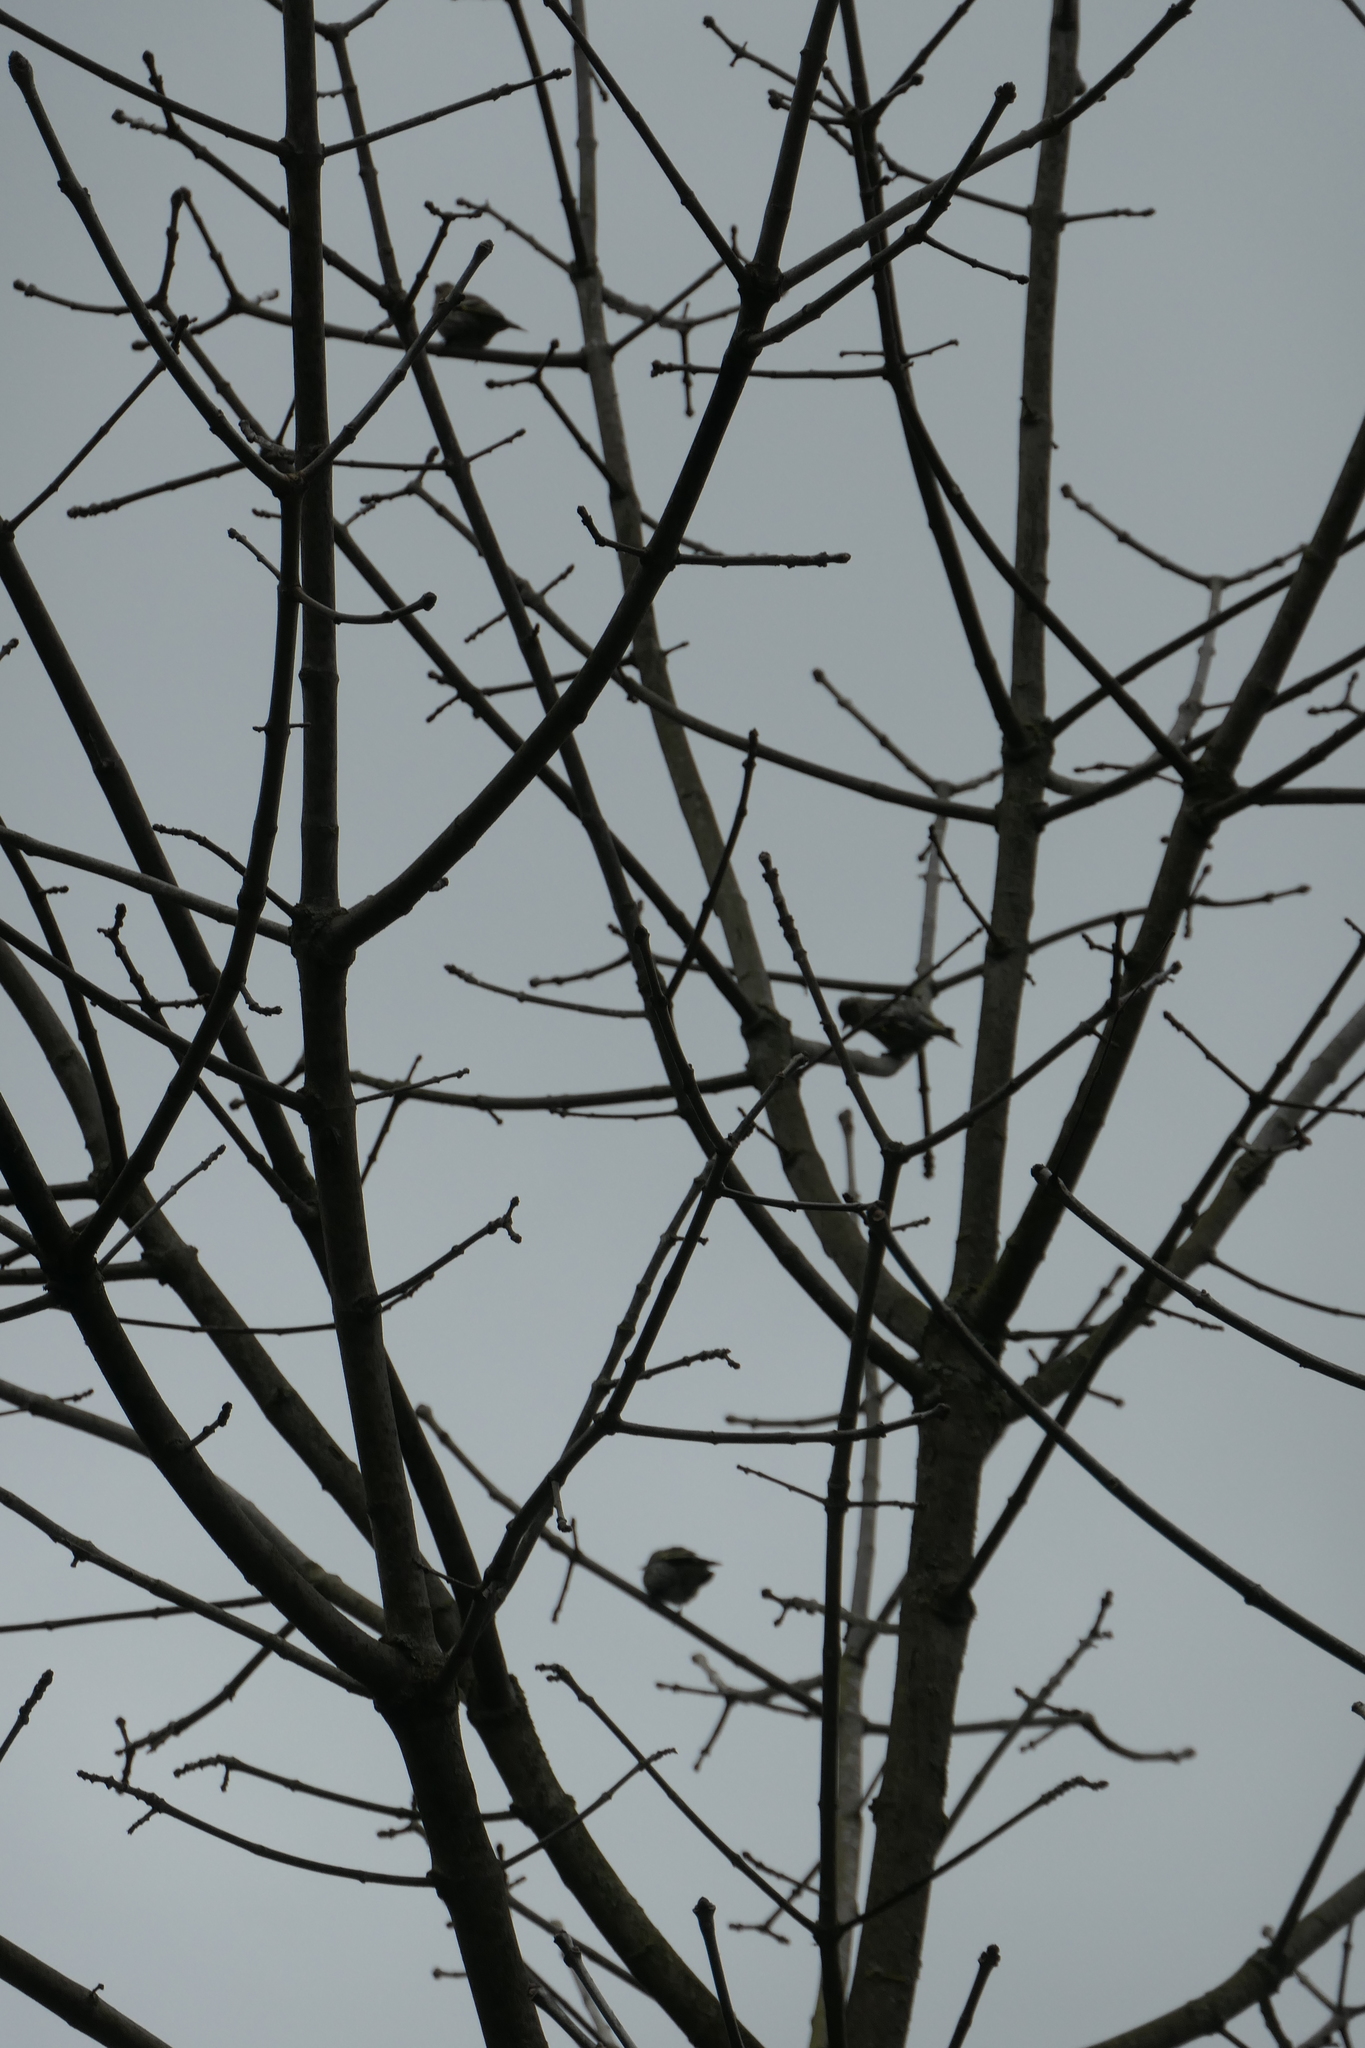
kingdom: Animalia
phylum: Chordata
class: Aves
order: Passeriformes
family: Passeridae
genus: Passer
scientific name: Passer domesticus
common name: House sparrow
